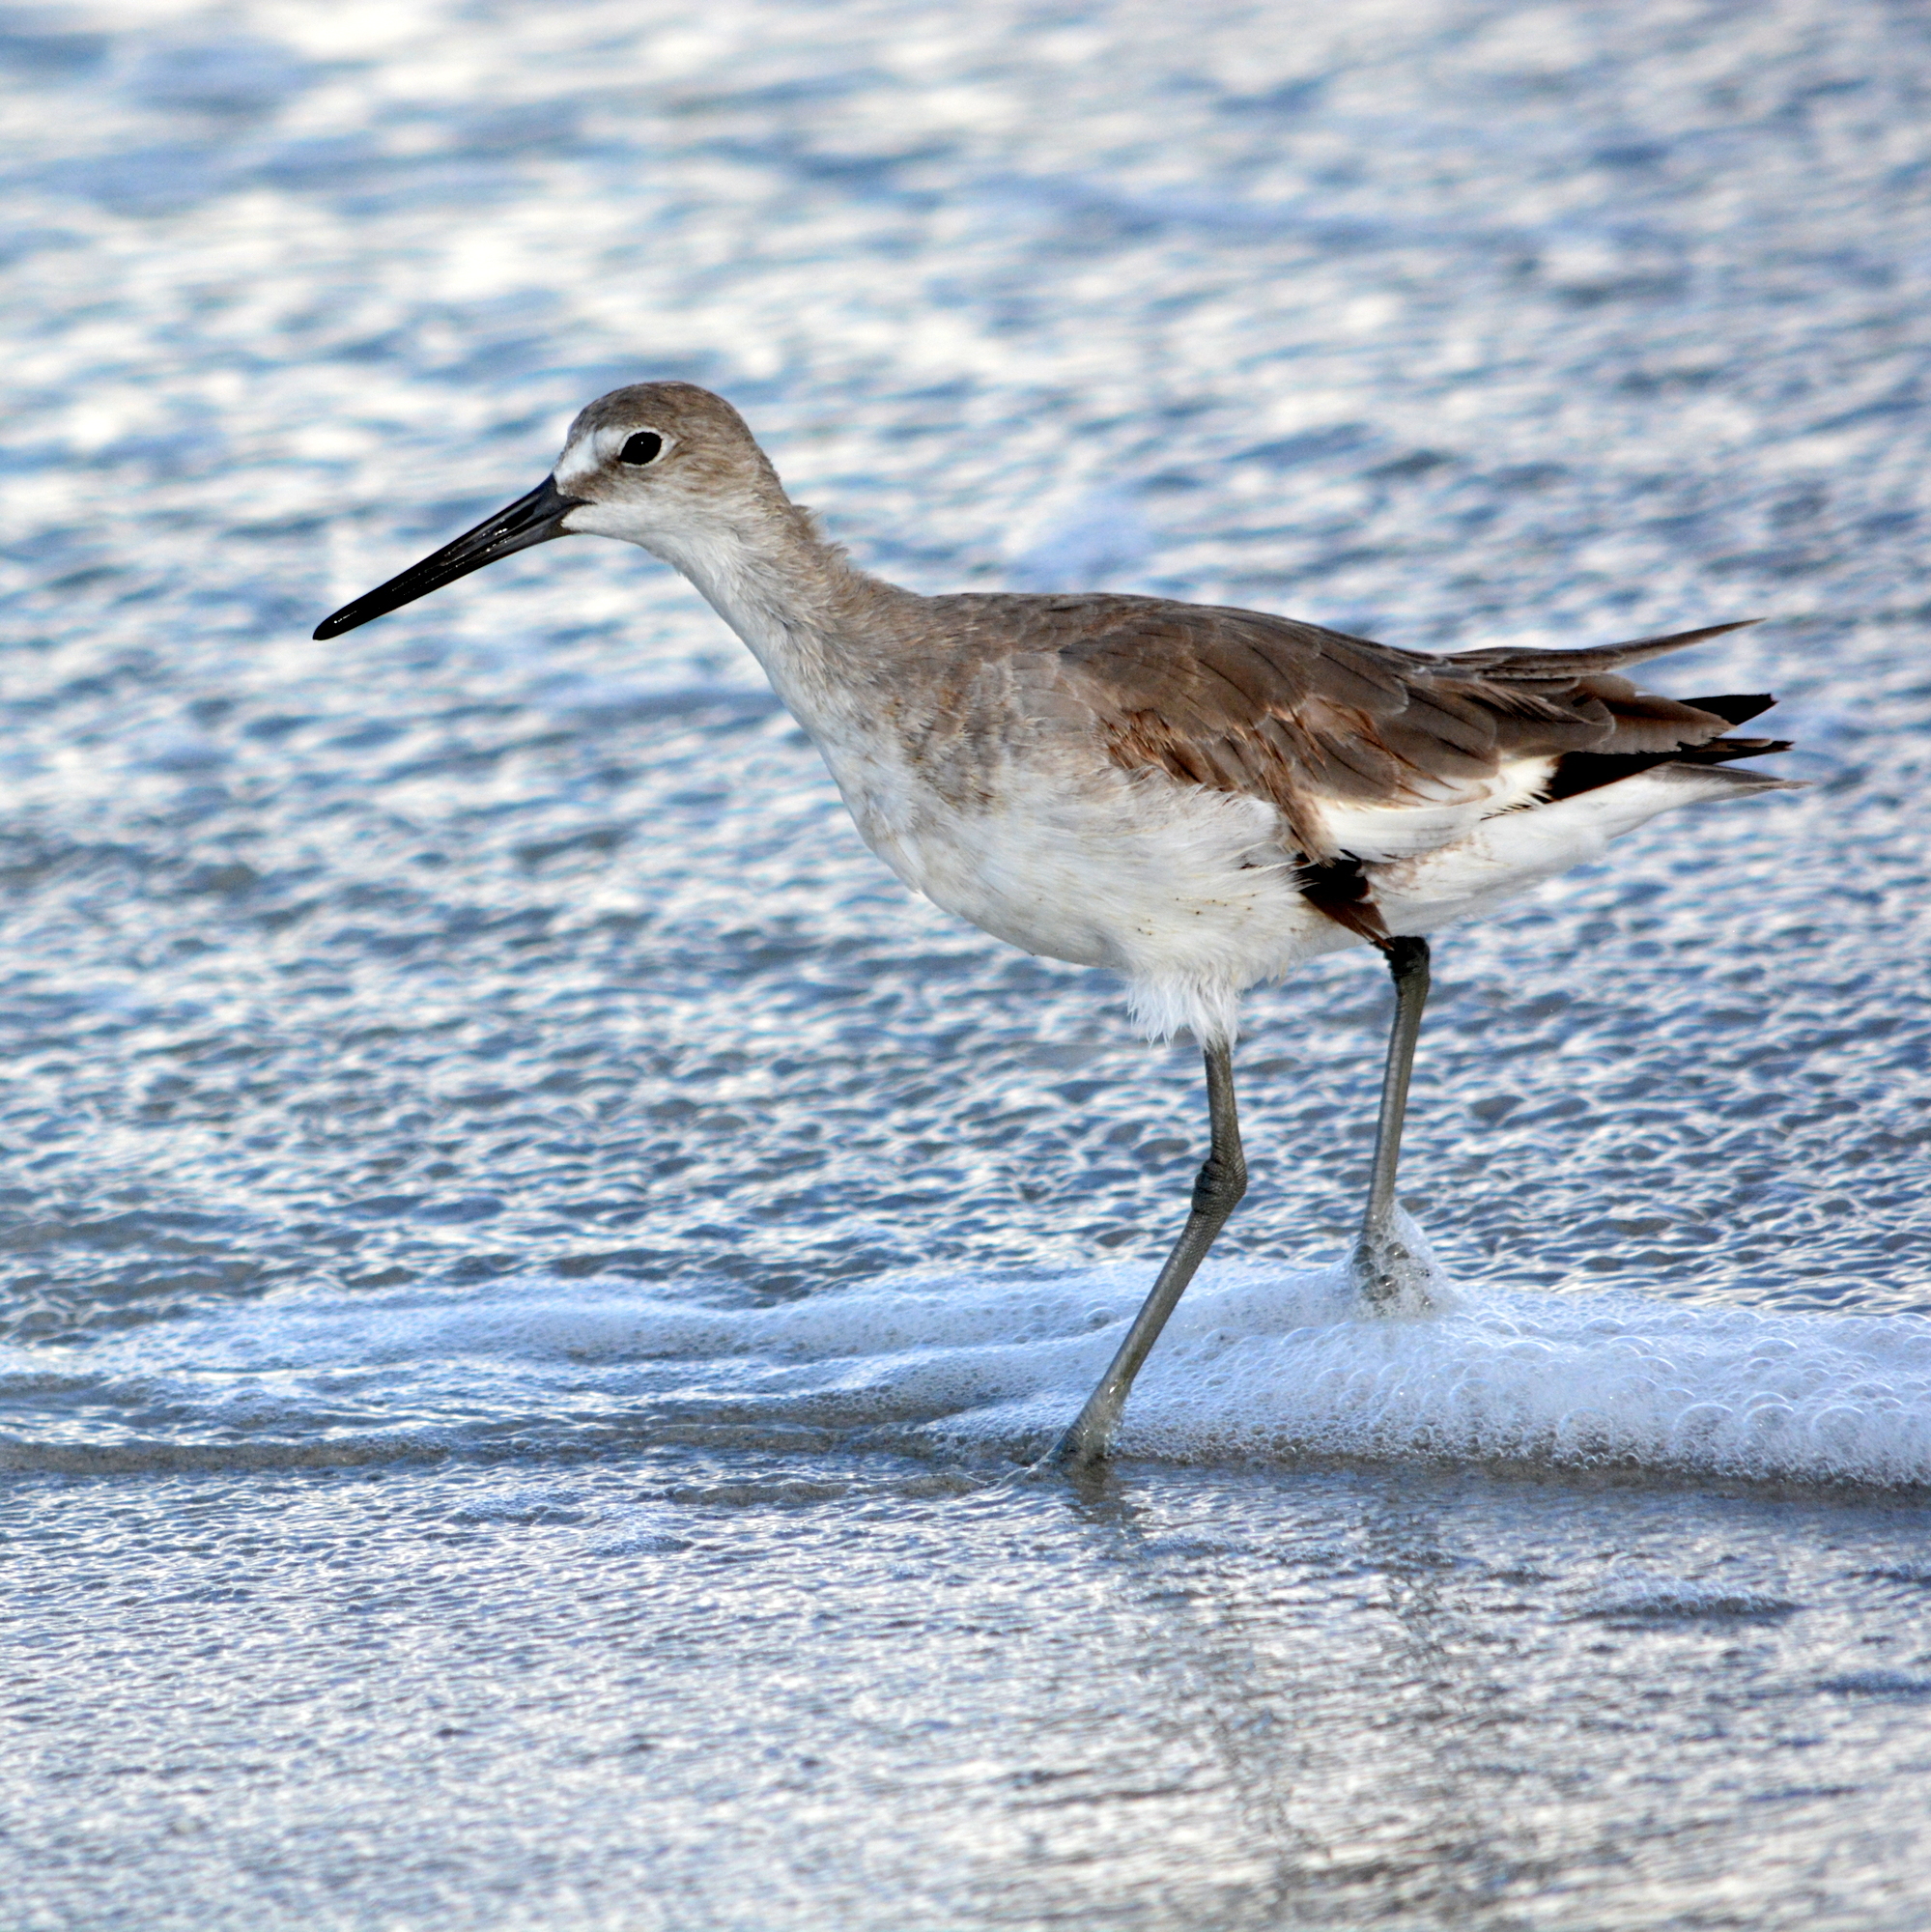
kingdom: Animalia
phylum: Chordata
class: Aves
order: Charadriiformes
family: Scolopacidae
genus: Tringa
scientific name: Tringa semipalmata
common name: Willet
